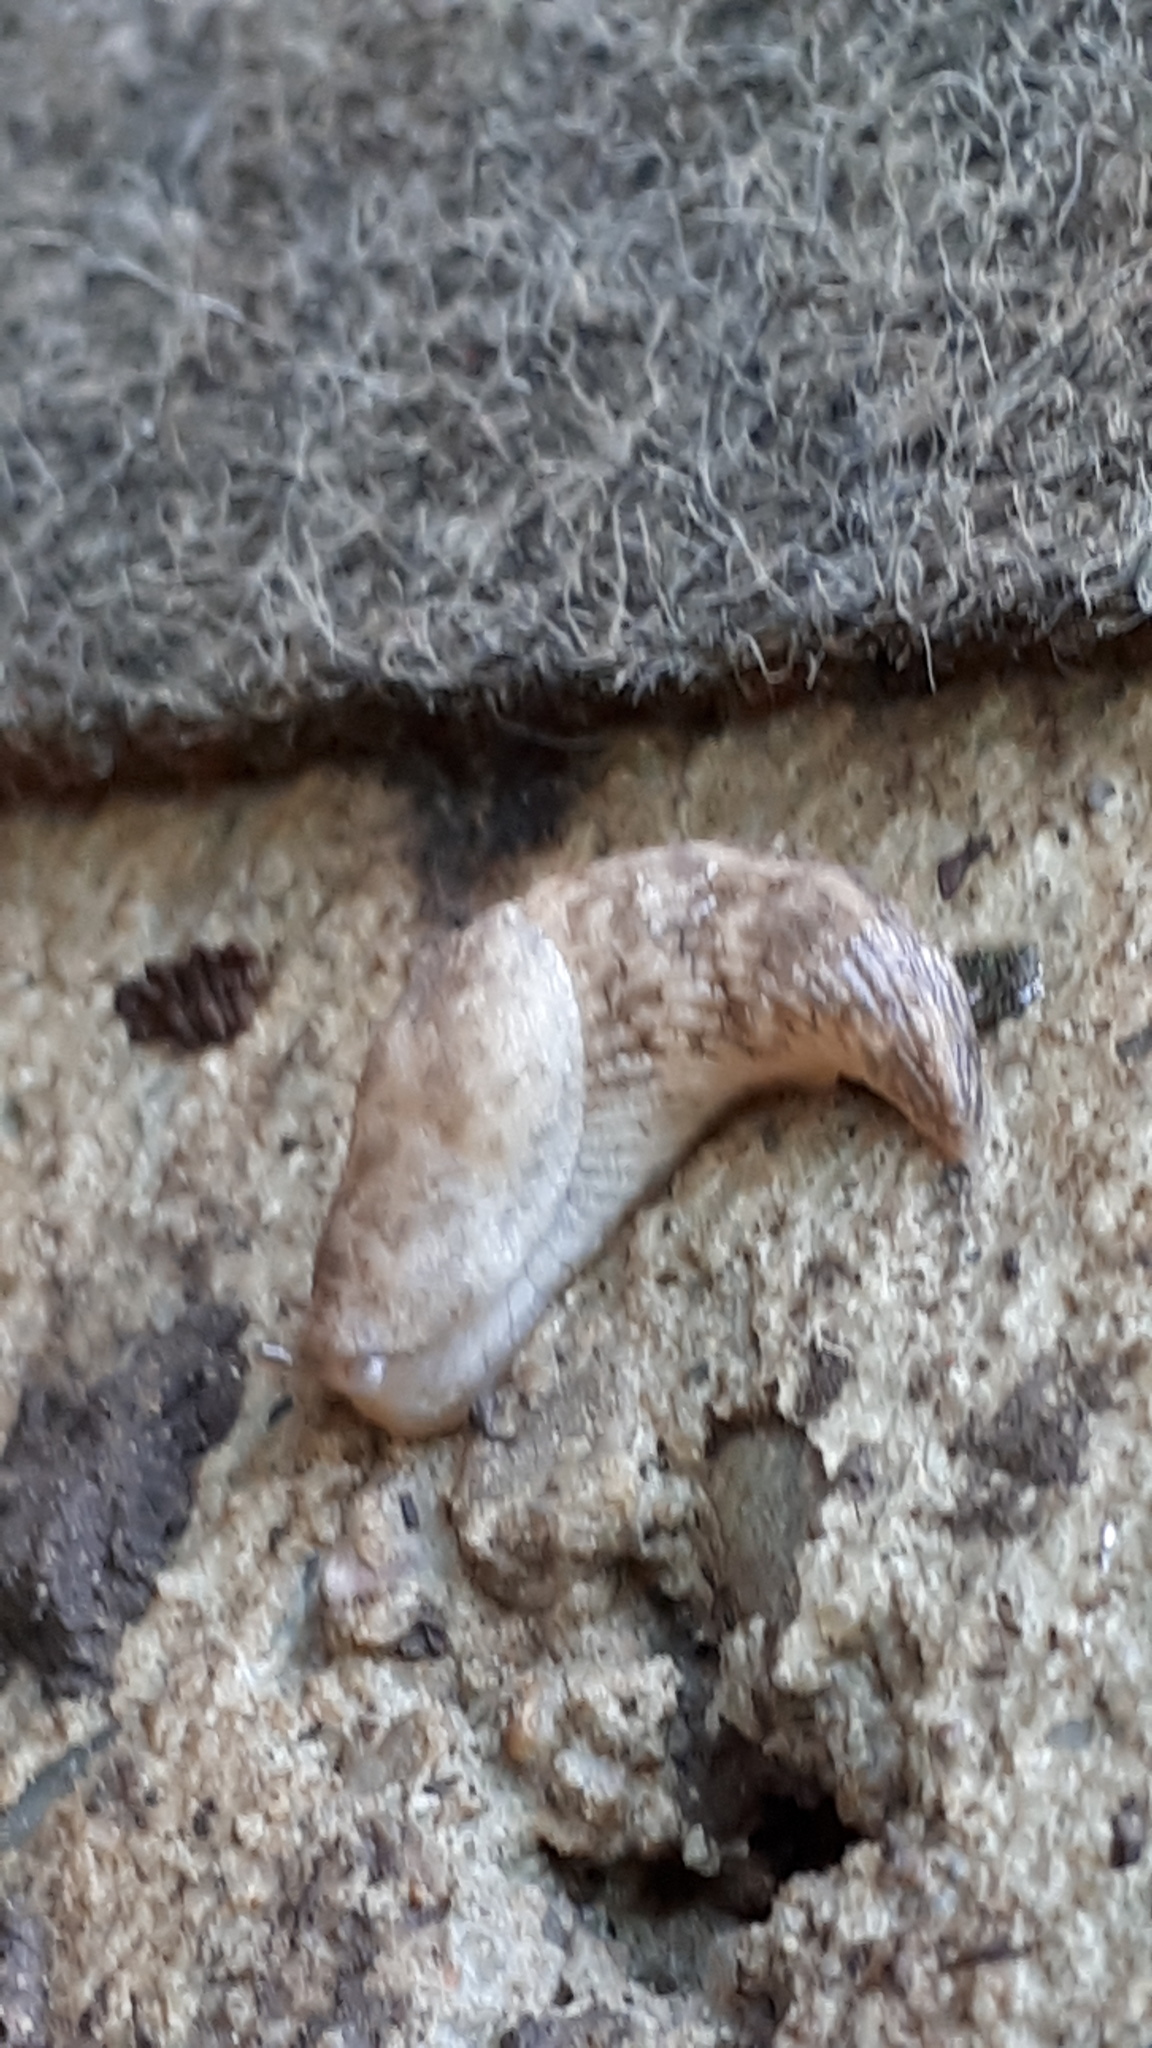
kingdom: Animalia
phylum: Mollusca
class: Gastropoda
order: Stylommatophora
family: Agriolimacidae
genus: Deroceras
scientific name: Deroceras reticulatum
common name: Gray field slug
